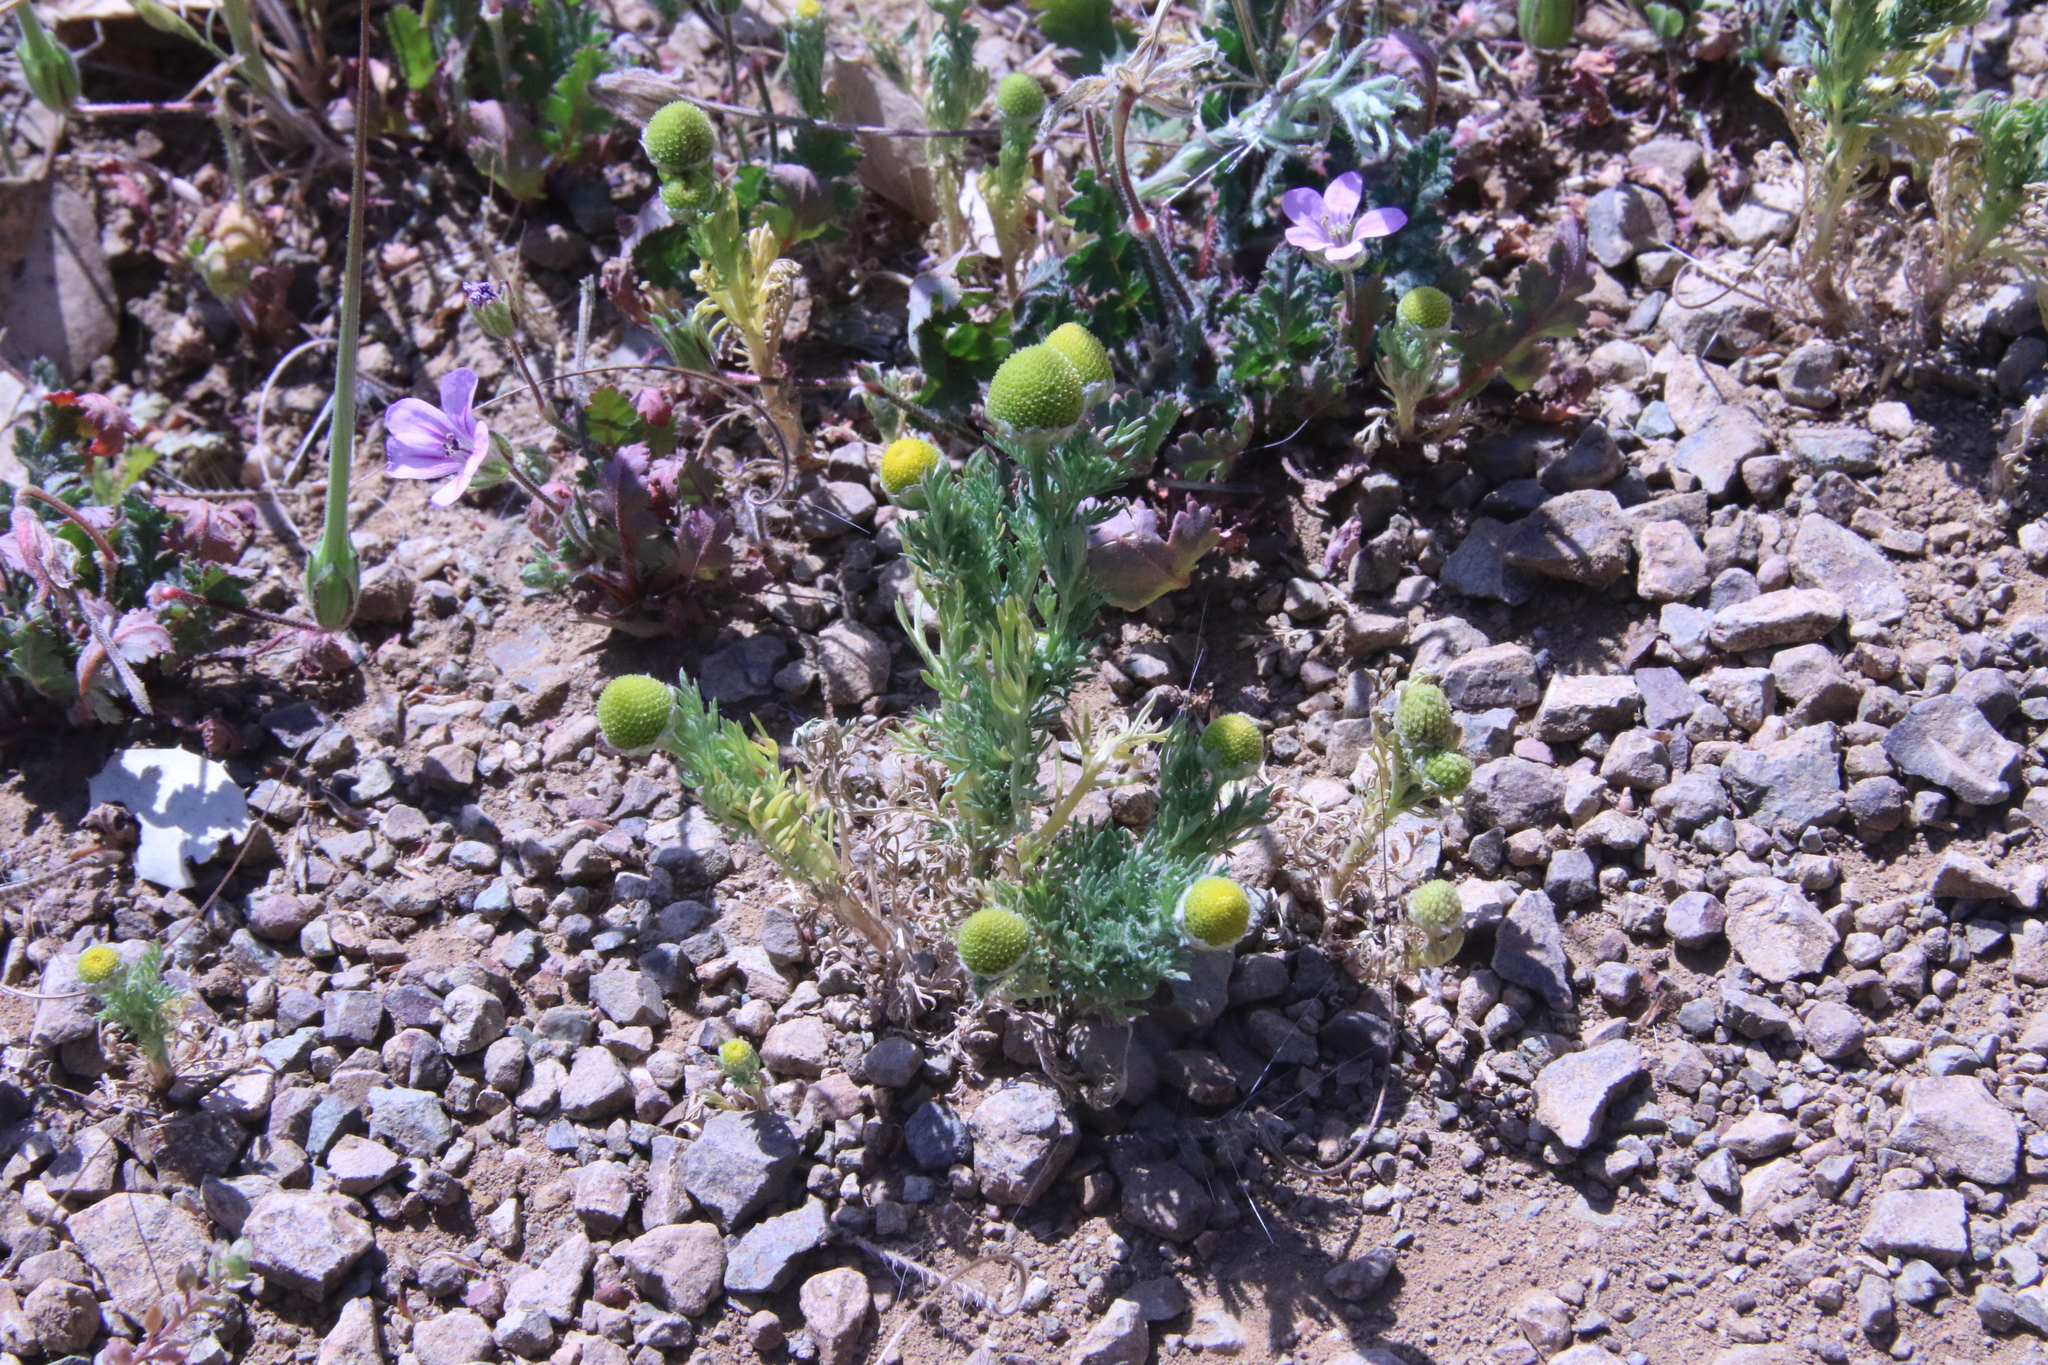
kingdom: Plantae
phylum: Tracheophyta
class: Magnoliopsida
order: Asterales
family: Asteraceae
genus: Matricaria
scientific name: Matricaria discoidea
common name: Disc mayweed
